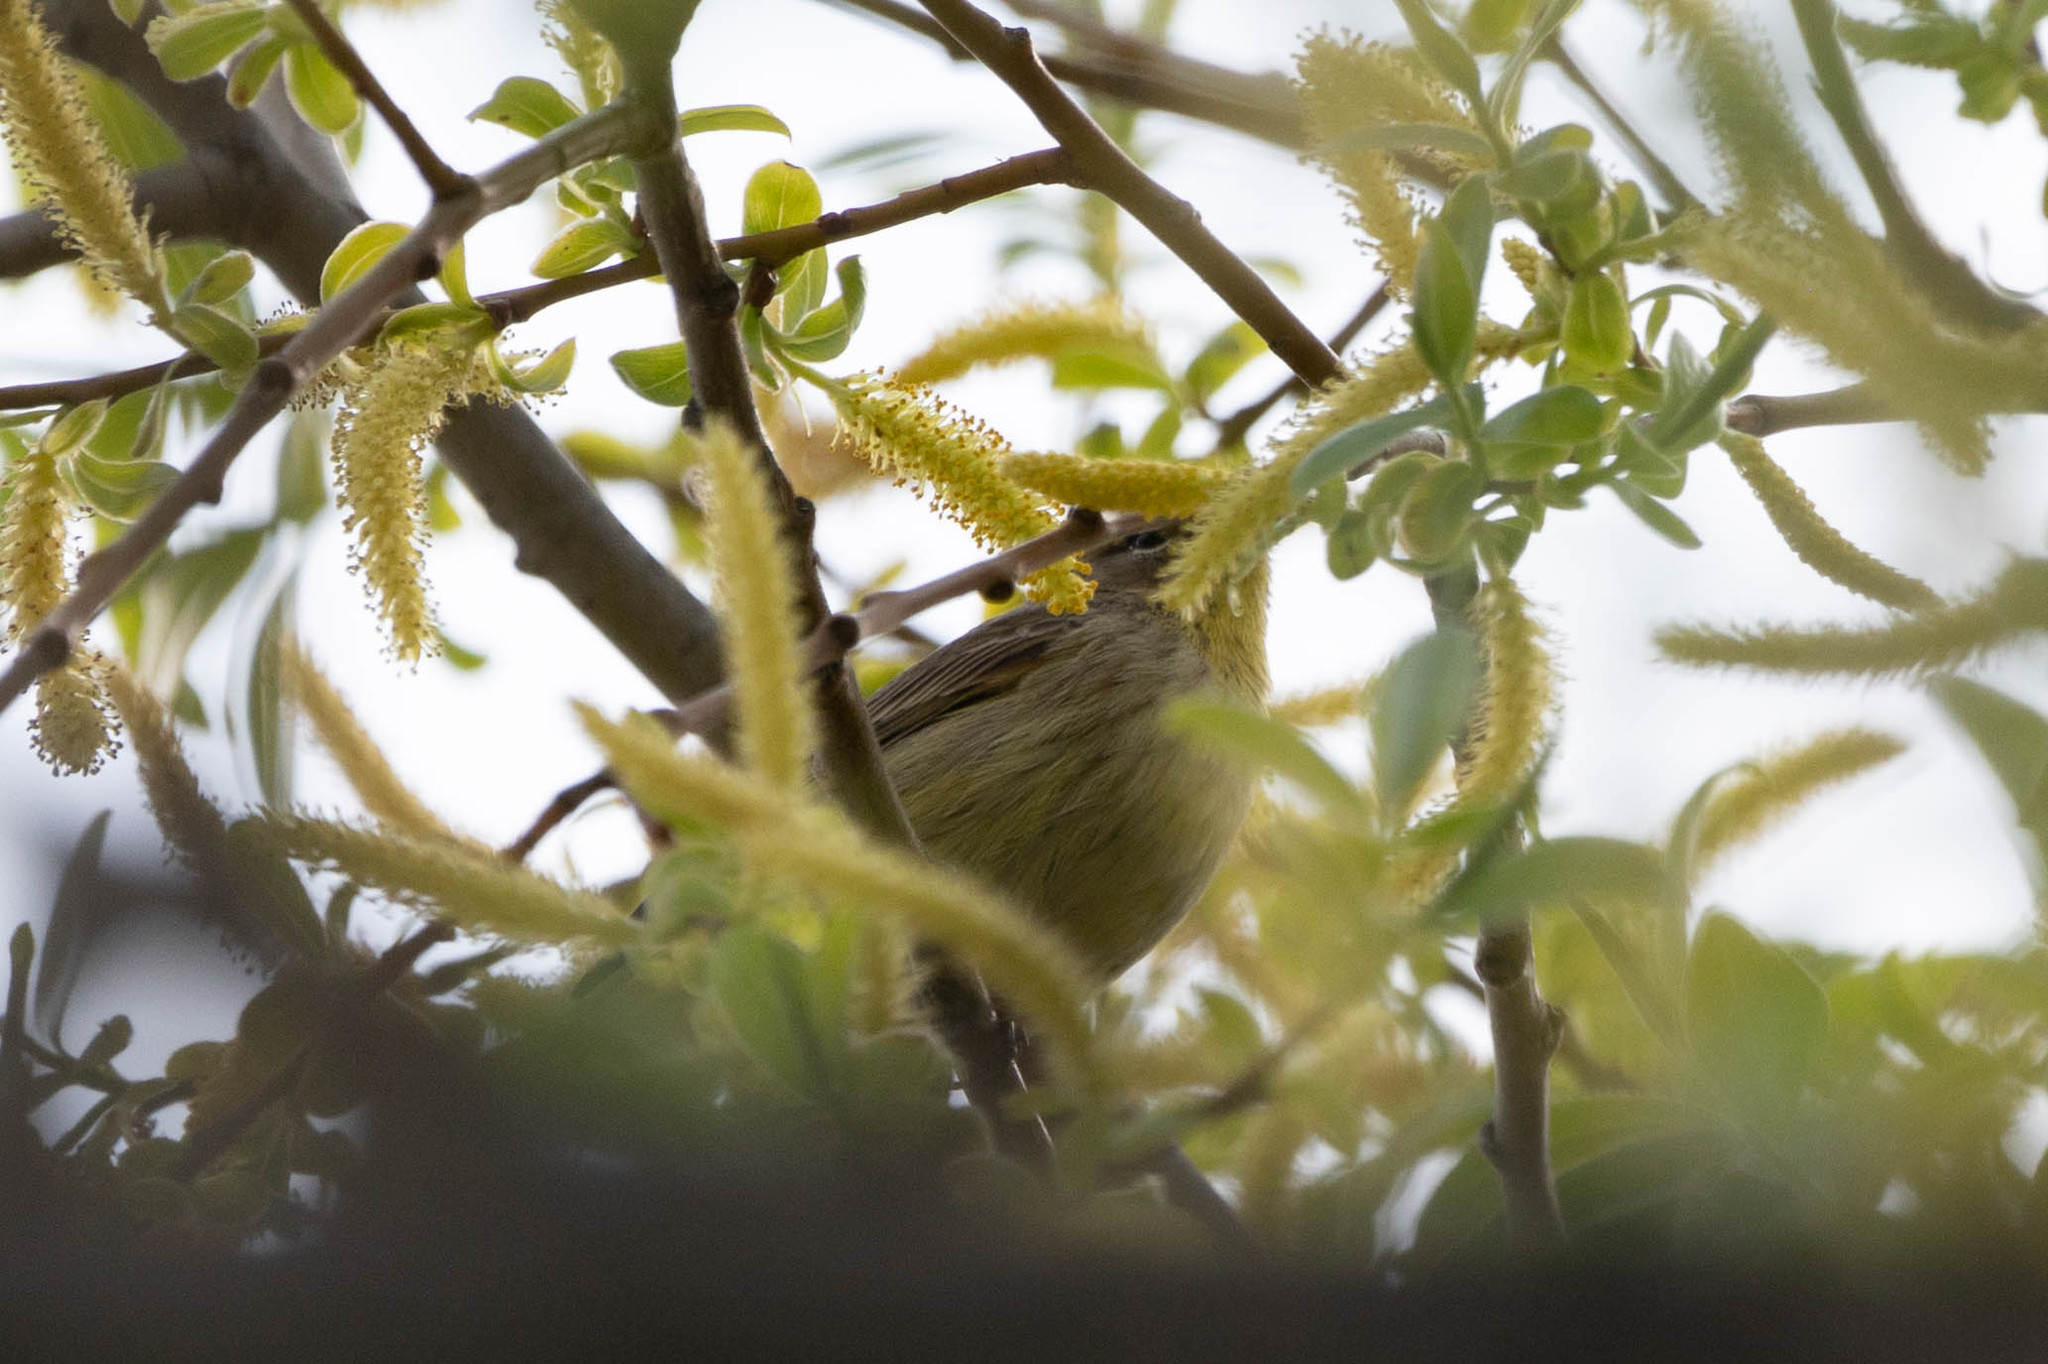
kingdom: Animalia
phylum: Chordata
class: Aves
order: Passeriformes
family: Parulidae
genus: Setophaga
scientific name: Setophaga palmarum
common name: Palm warbler
